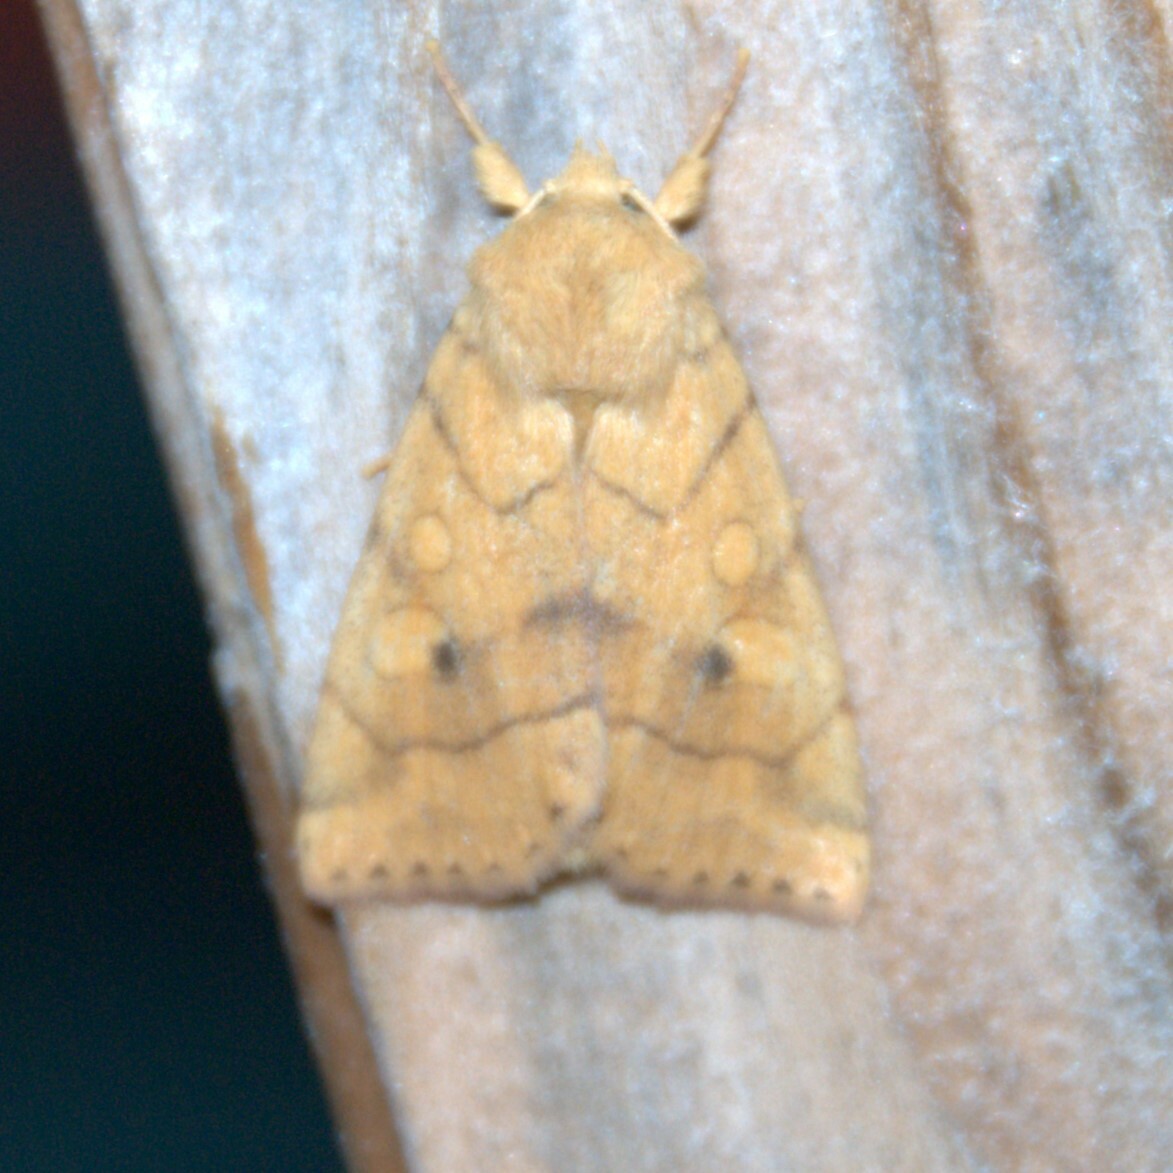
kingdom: Animalia
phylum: Arthropoda
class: Insecta
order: Lepidoptera
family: Noctuidae
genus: Enargia
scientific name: Enargia paleacea
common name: Angle-striped sallow
